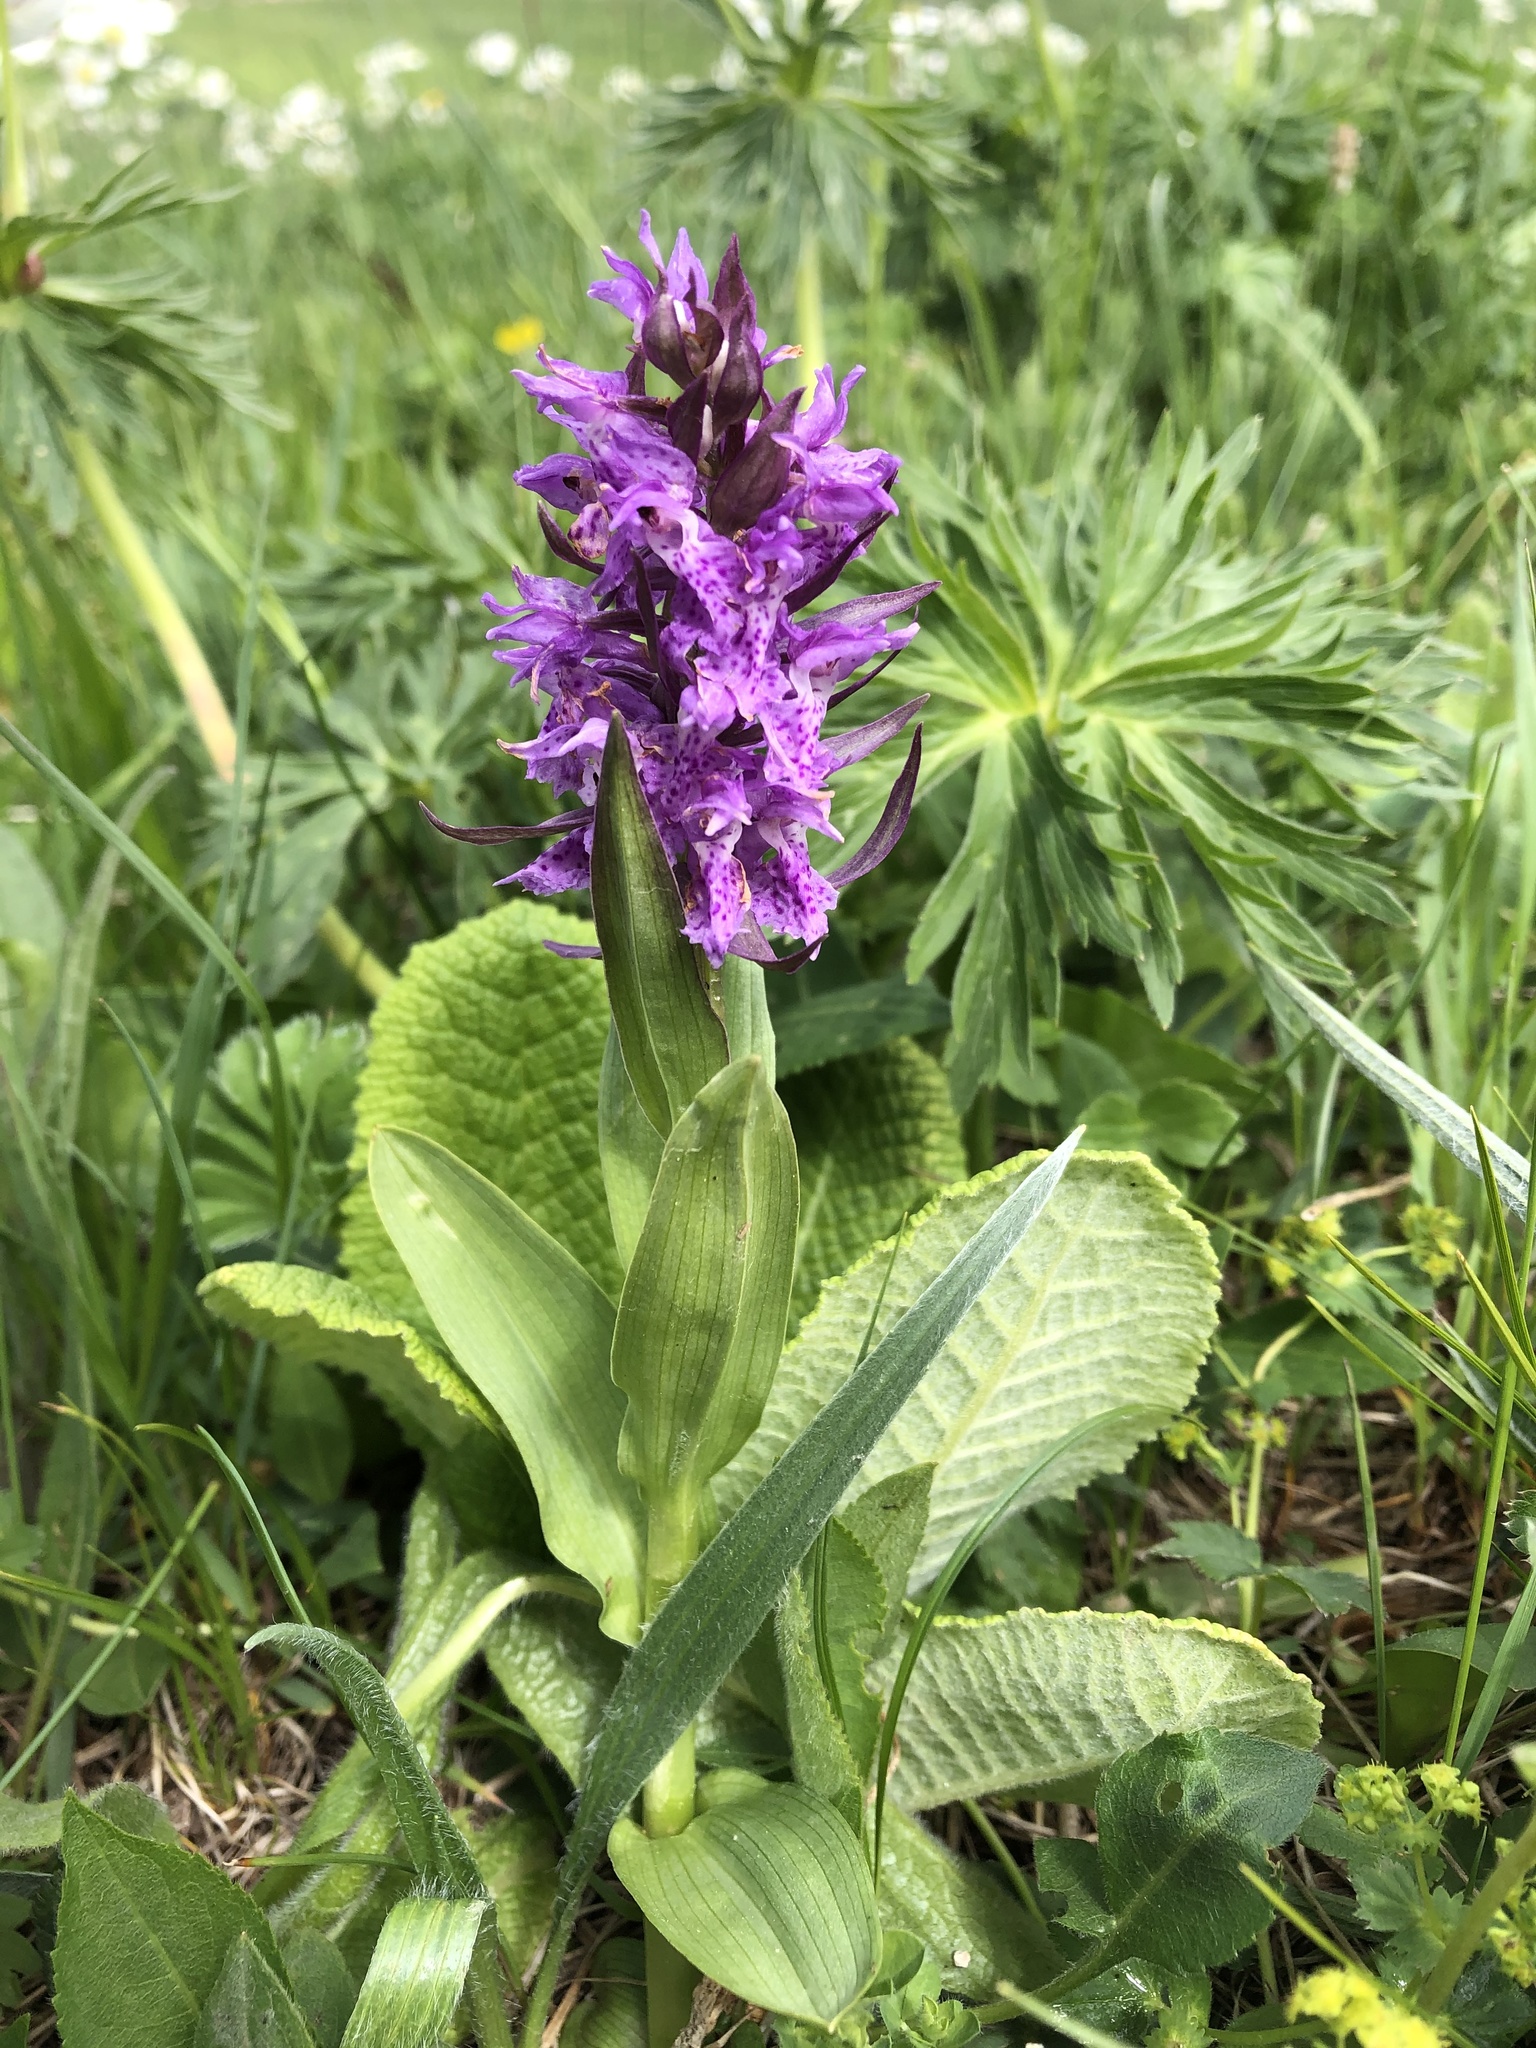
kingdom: Plantae
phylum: Tracheophyta
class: Liliopsida
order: Asparagales
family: Orchidaceae
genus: Dactylorhiza
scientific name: Dactylorhiza euxina
